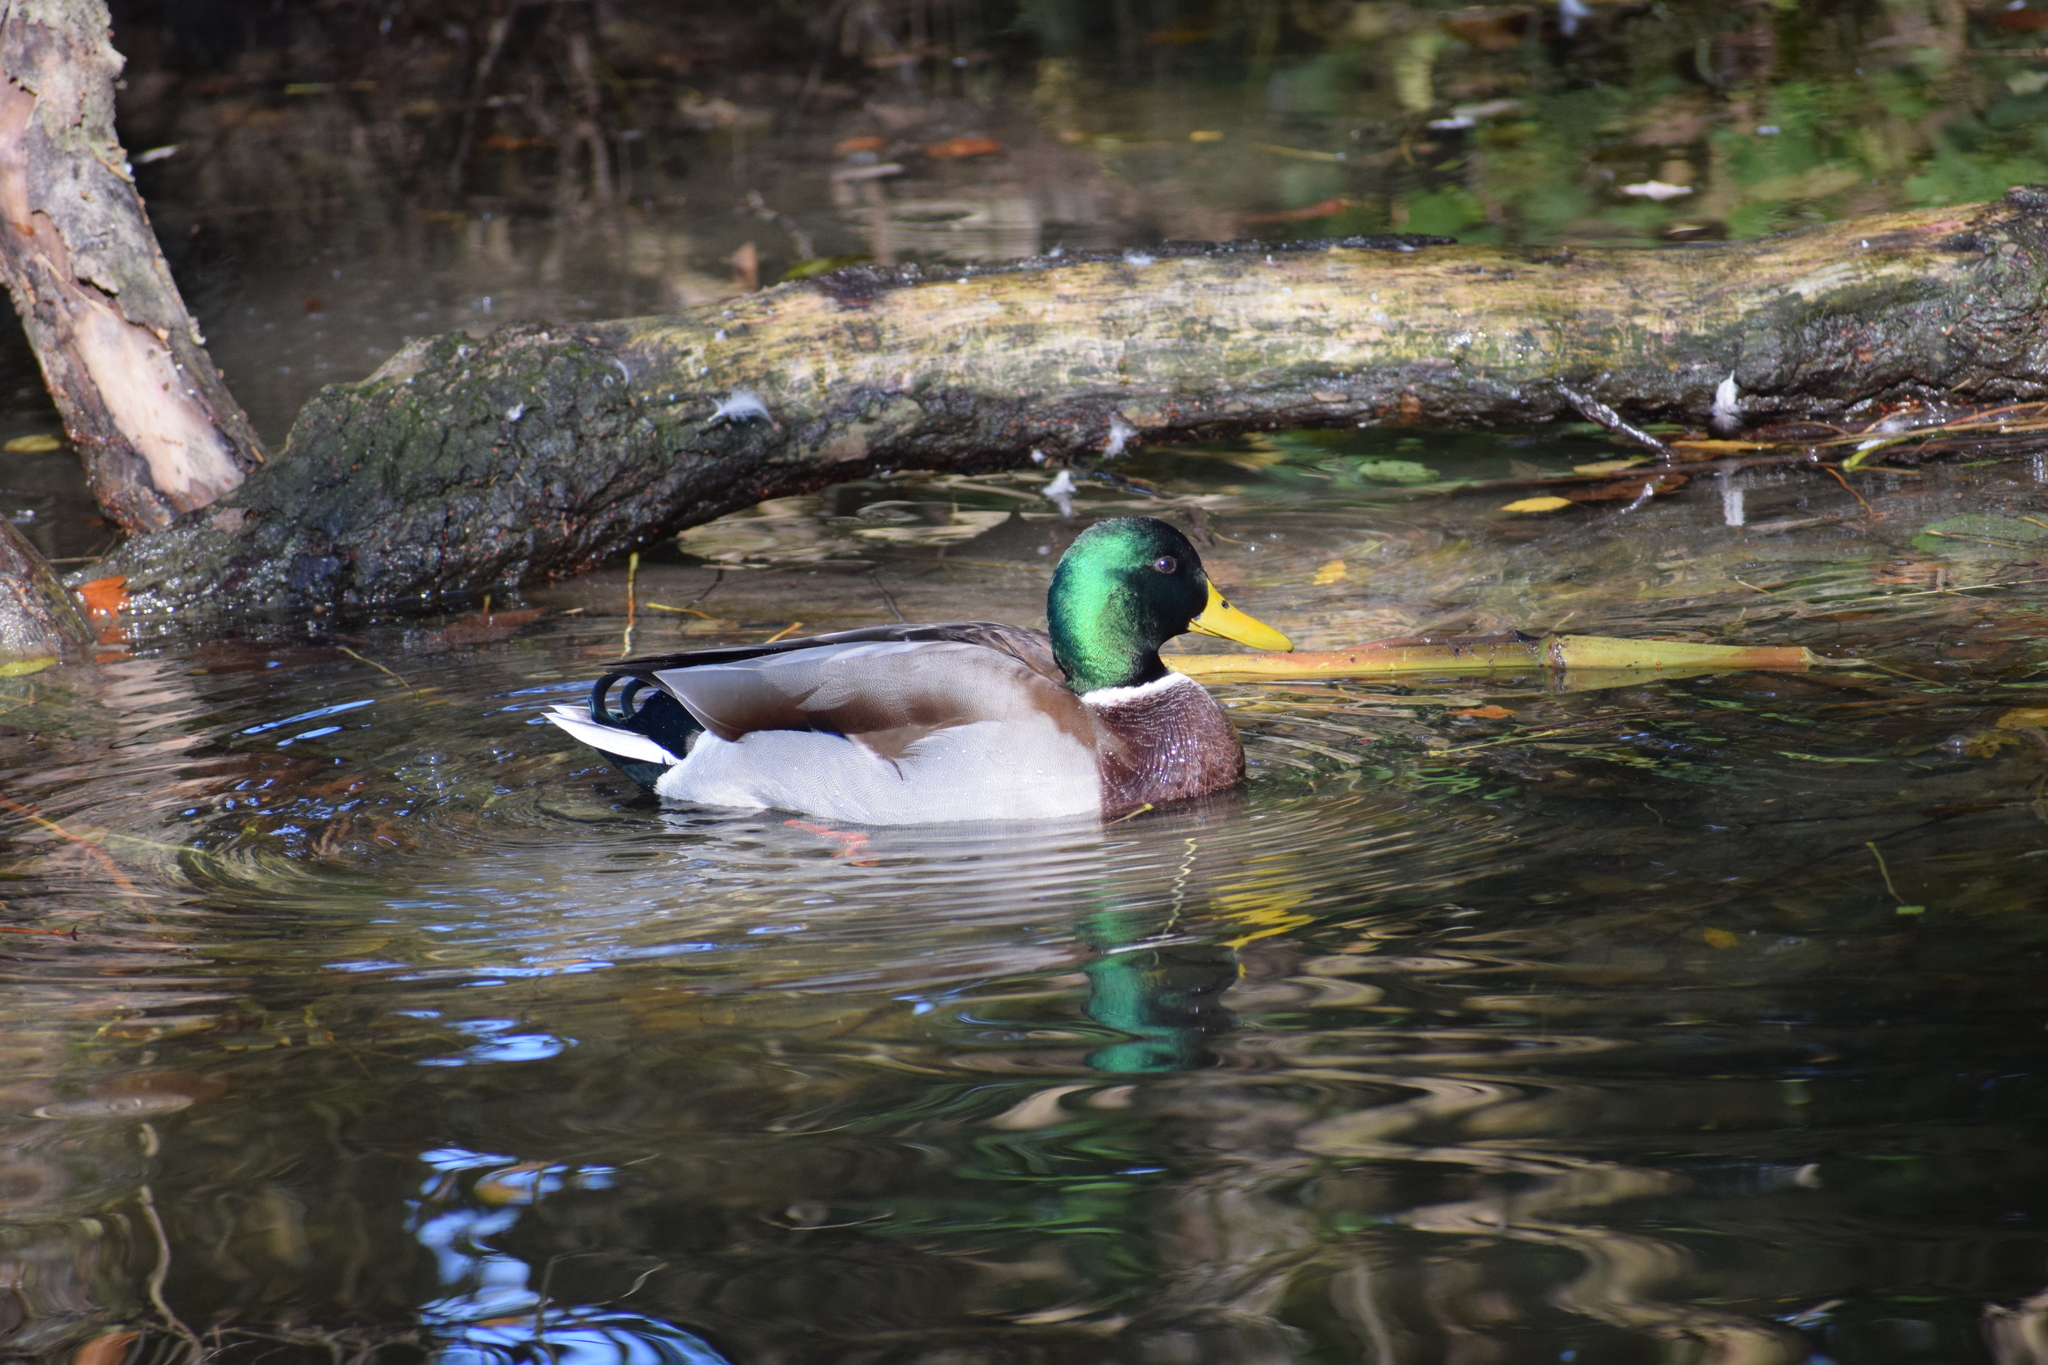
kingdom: Animalia
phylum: Chordata
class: Aves
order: Anseriformes
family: Anatidae
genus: Anas
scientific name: Anas platyrhynchos
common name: Mallard
